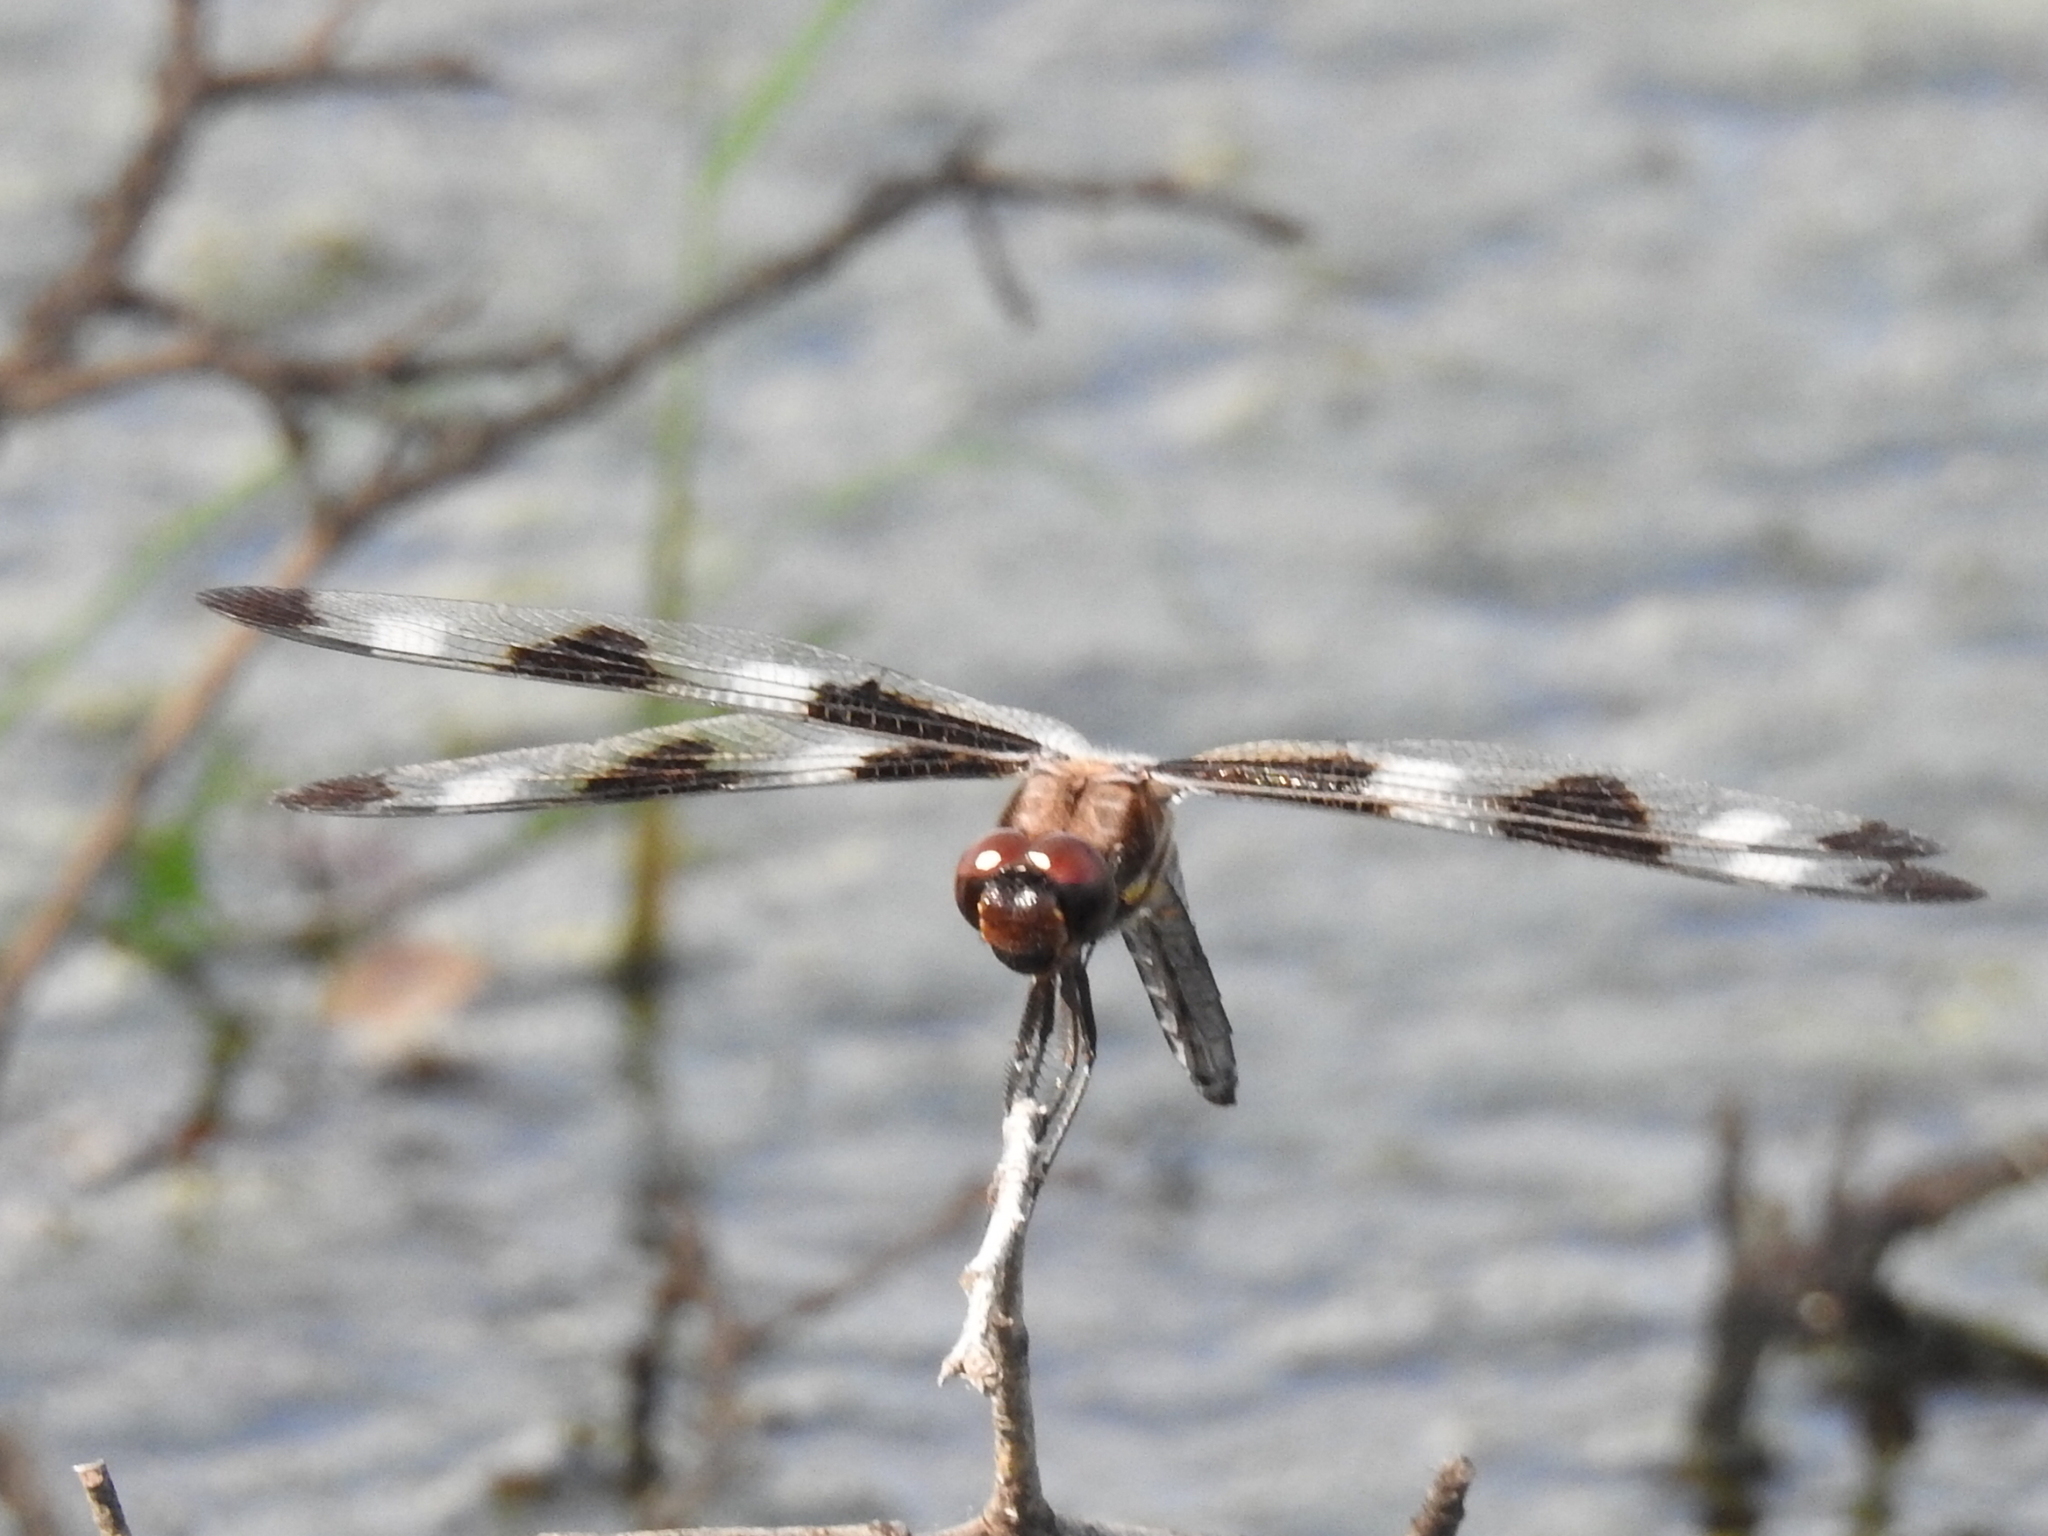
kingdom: Animalia
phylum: Arthropoda
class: Insecta
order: Odonata
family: Libellulidae
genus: Libellula
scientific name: Libellula pulchella
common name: Twelve-spotted skimmer
